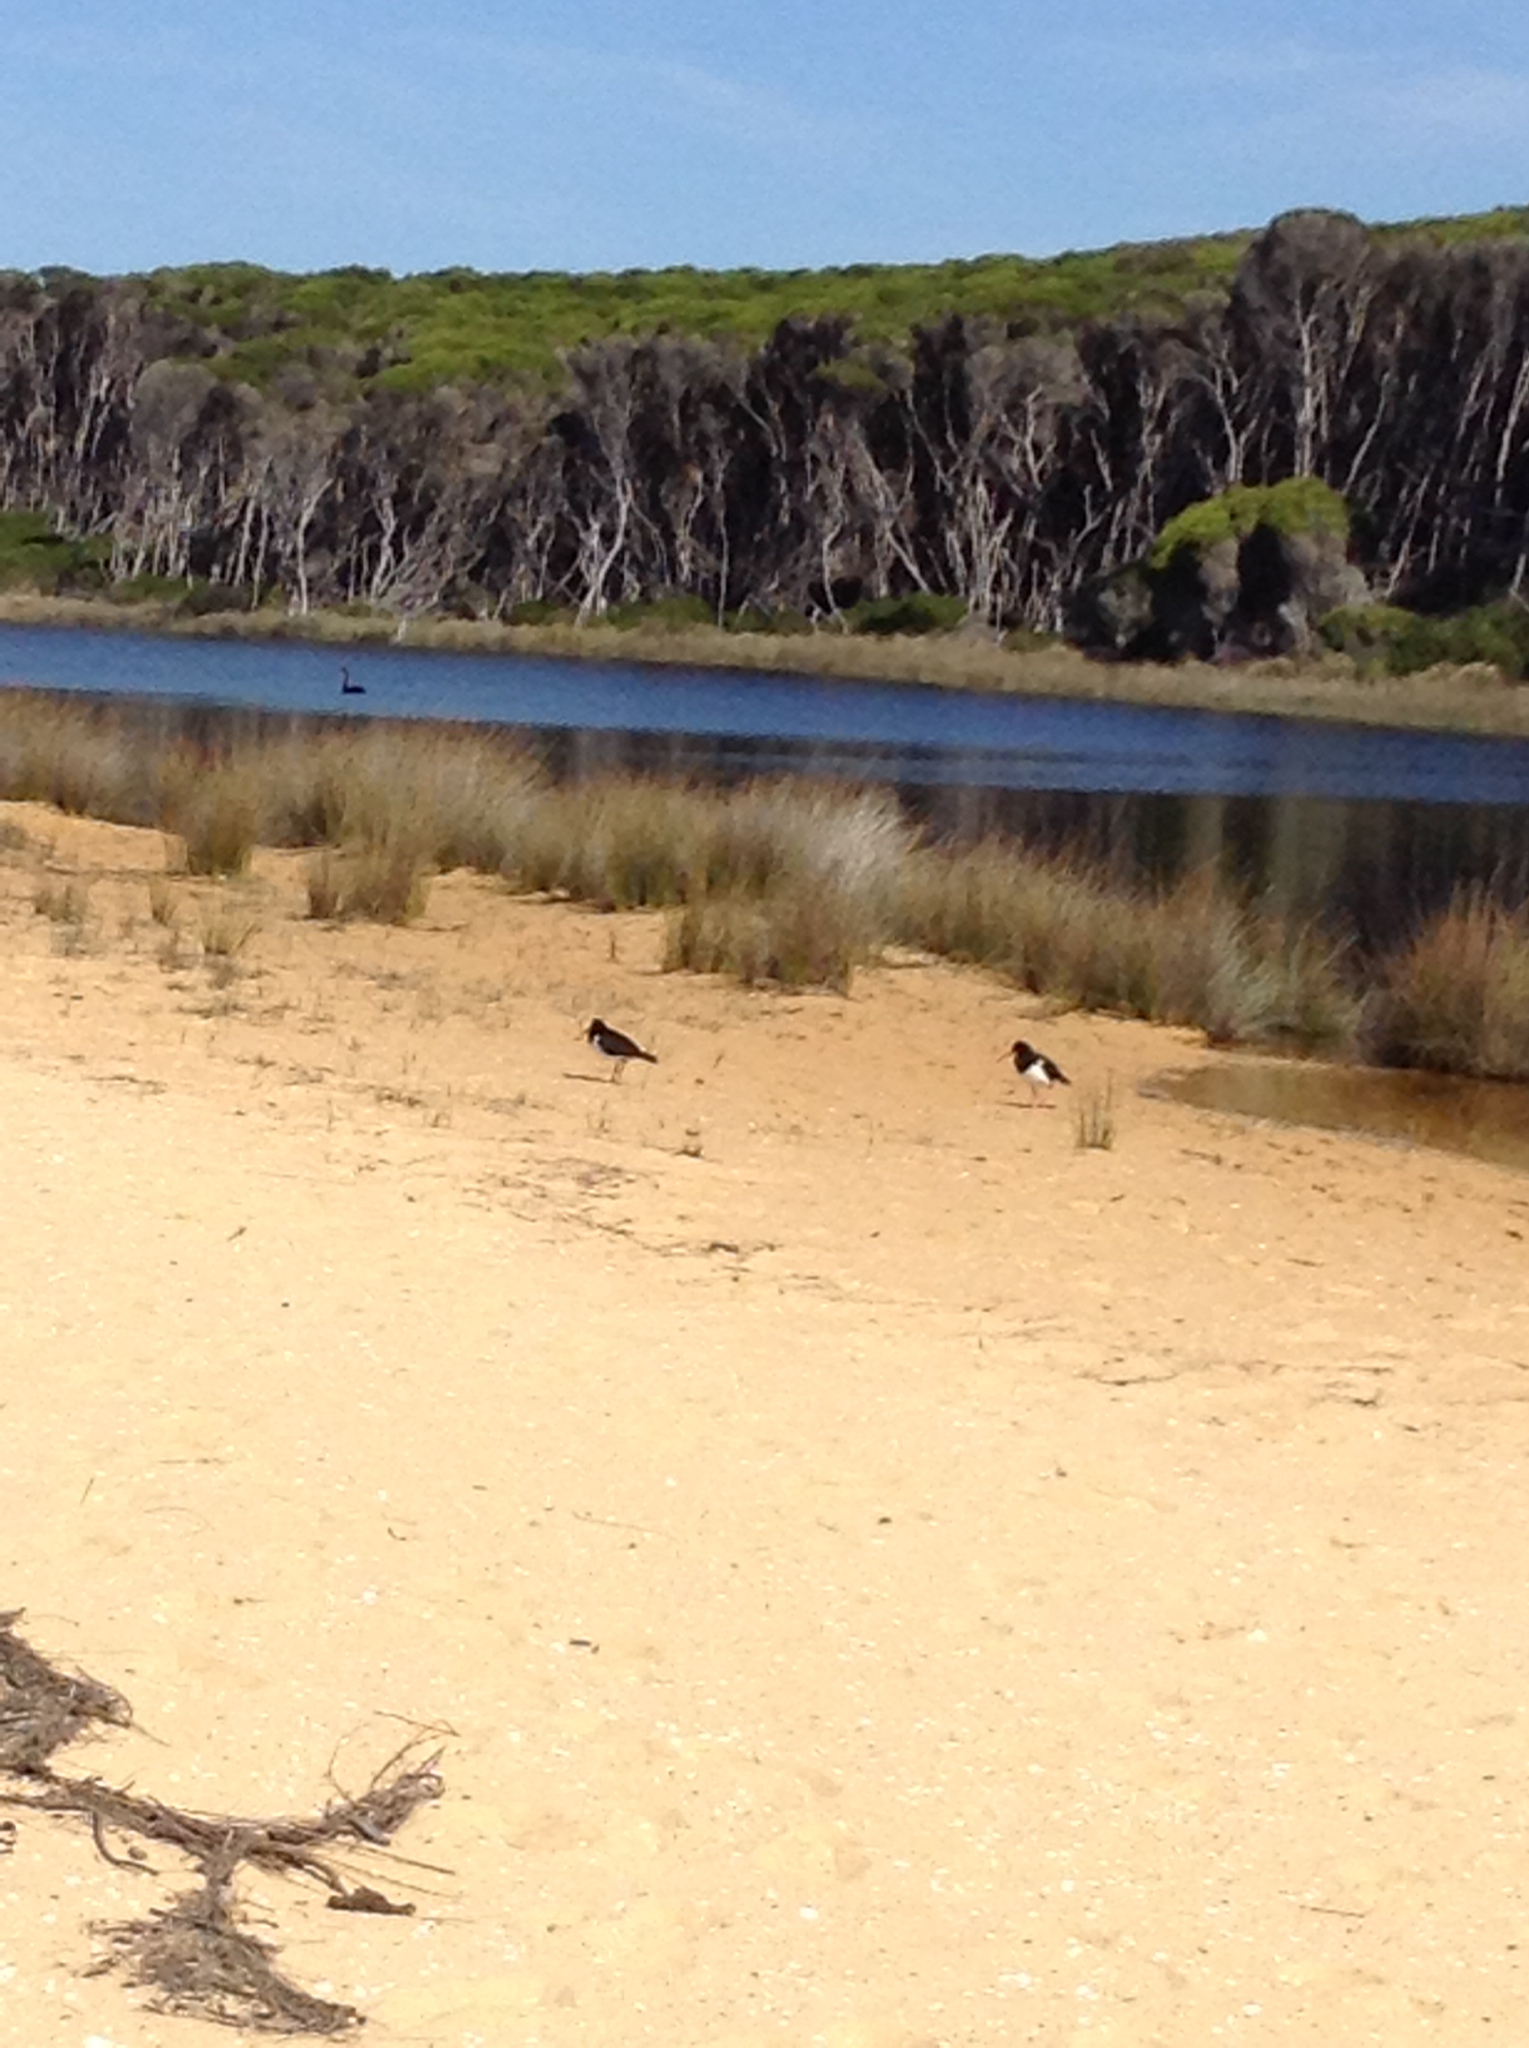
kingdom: Animalia
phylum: Chordata
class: Aves
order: Charadriiformes
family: Haematopodidae
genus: Haematopus
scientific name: Haematopus longirostris
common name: Pied oystercatcher
